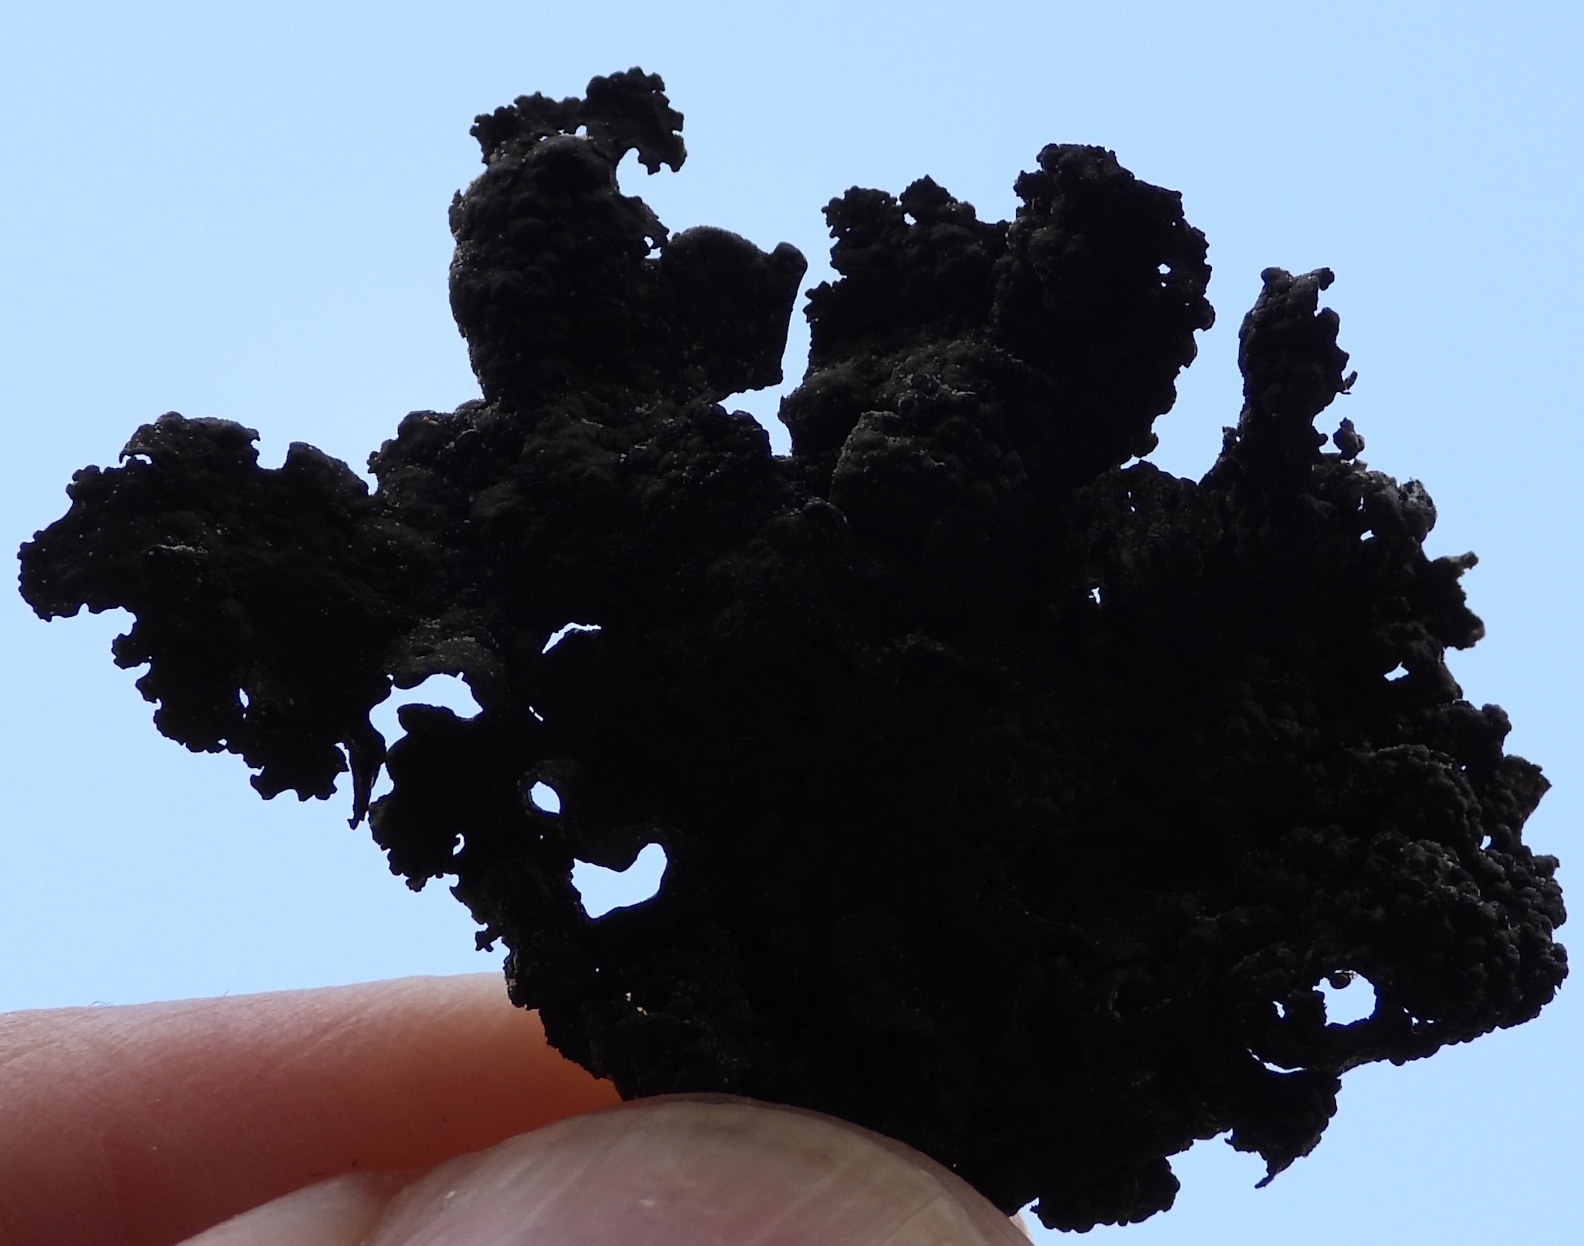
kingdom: Fungi
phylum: Ascomycota
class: Lecanoromycetes
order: Umbilicariales
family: Umbilicariaceae
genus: Umbilicaria
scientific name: Umbilicaria torrefacta
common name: Punctured rock tripe lichen
